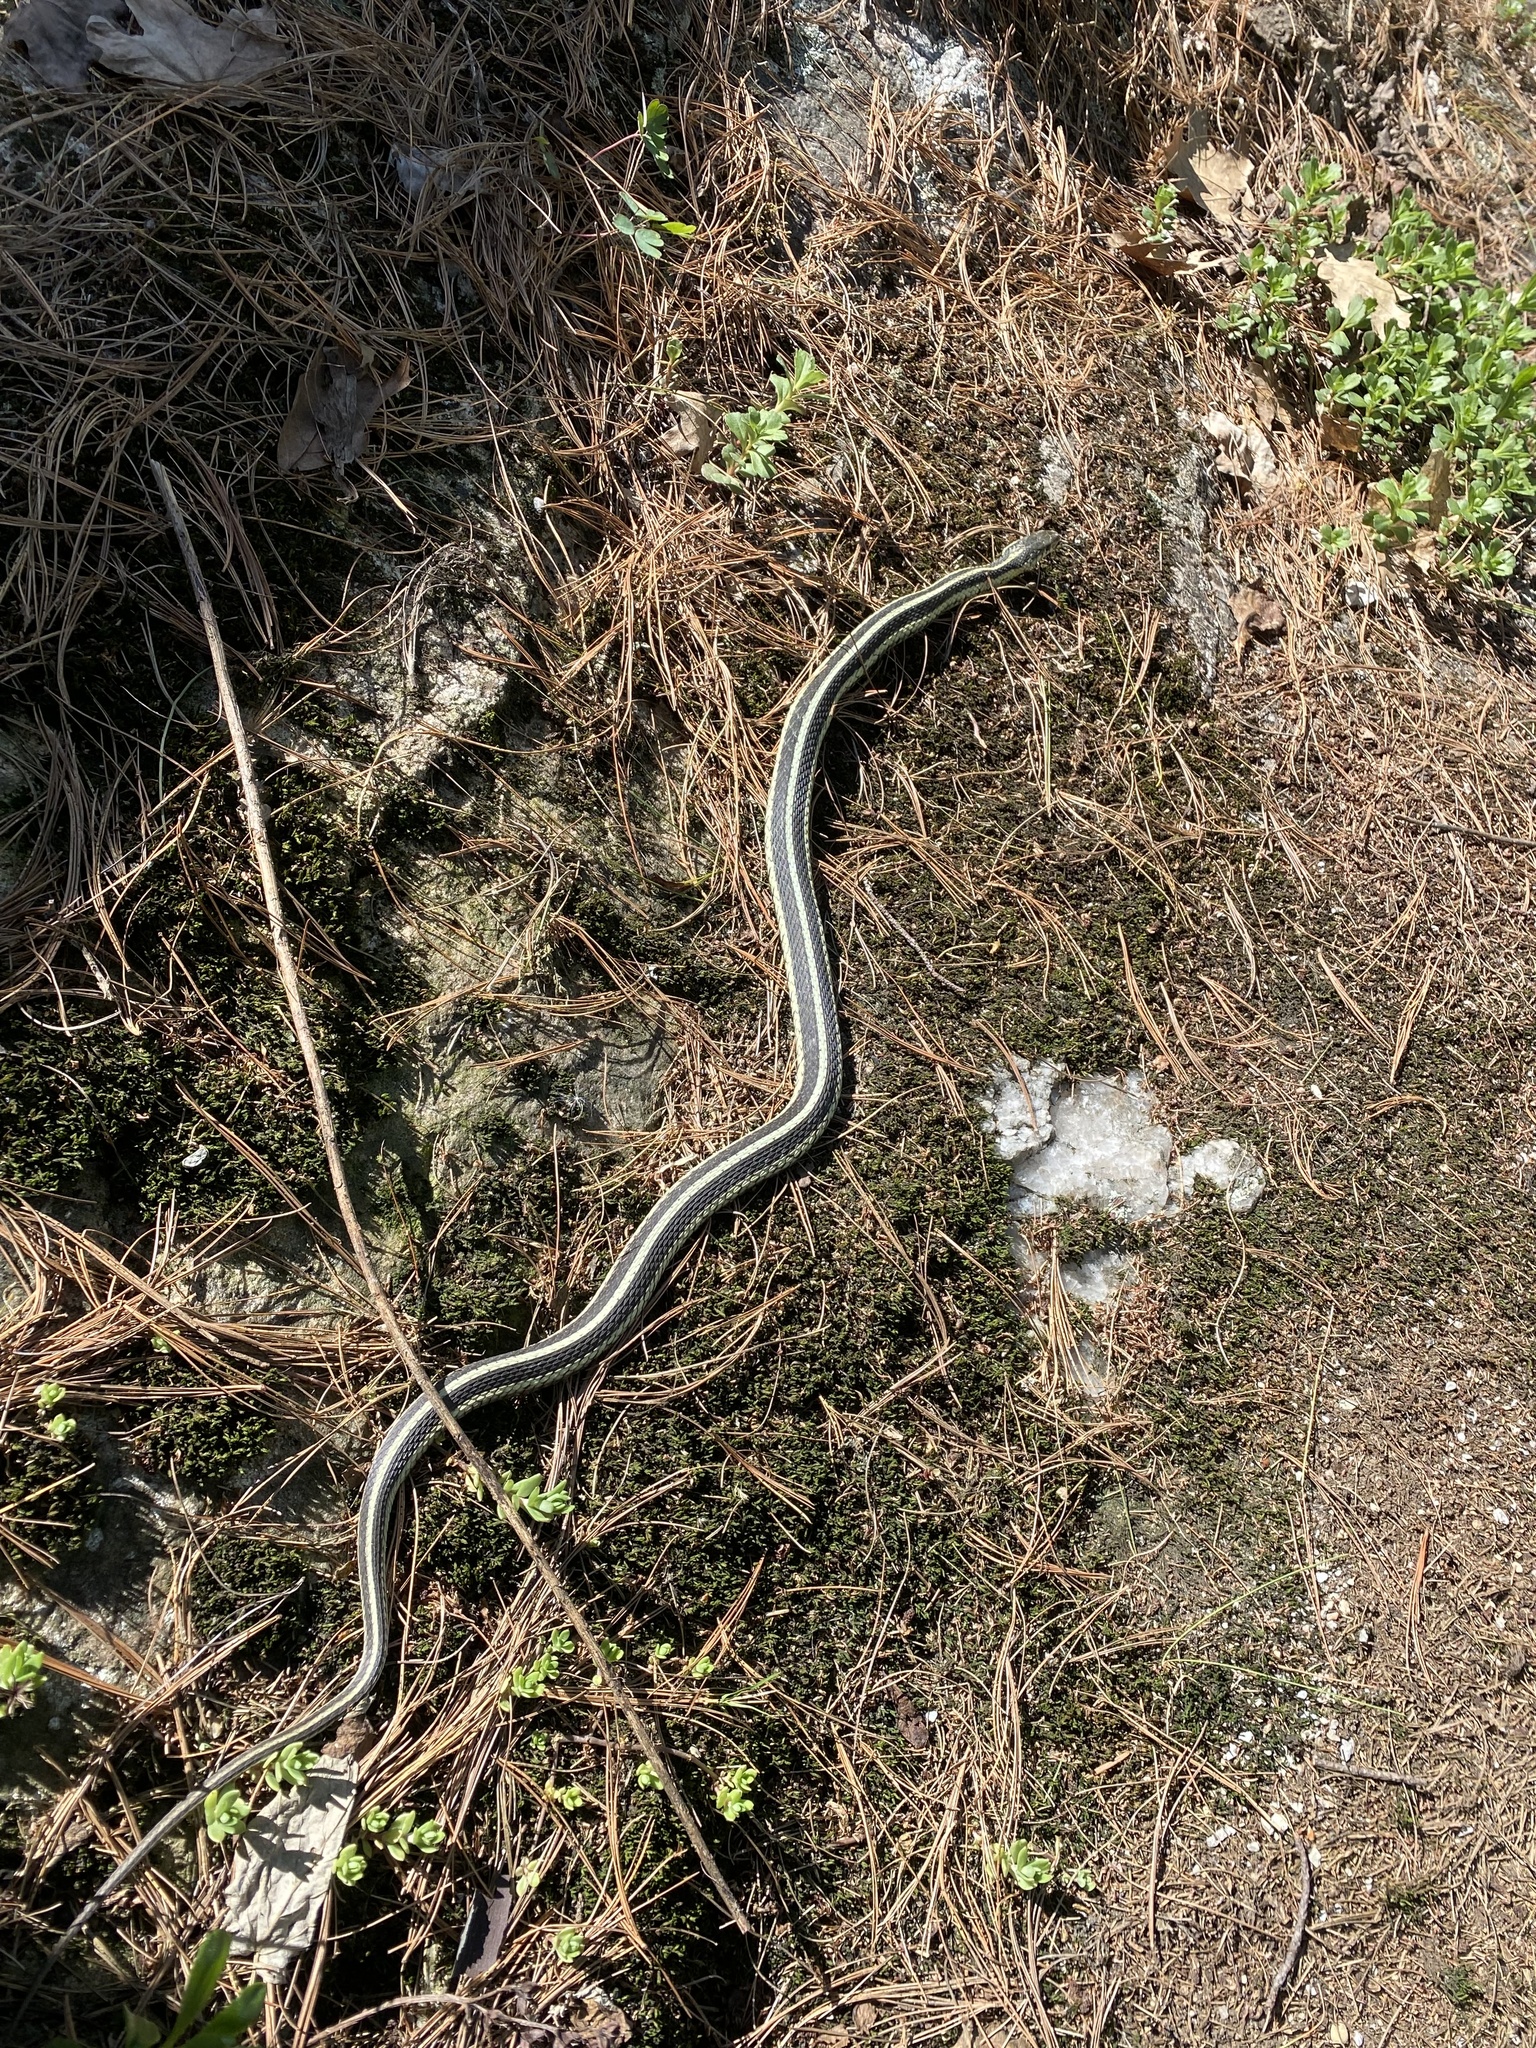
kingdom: Animalia
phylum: Chordata
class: Squamata
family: Colubridae
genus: Thamnophis
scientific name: Thamnophis sirtalis
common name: Common garter snake
